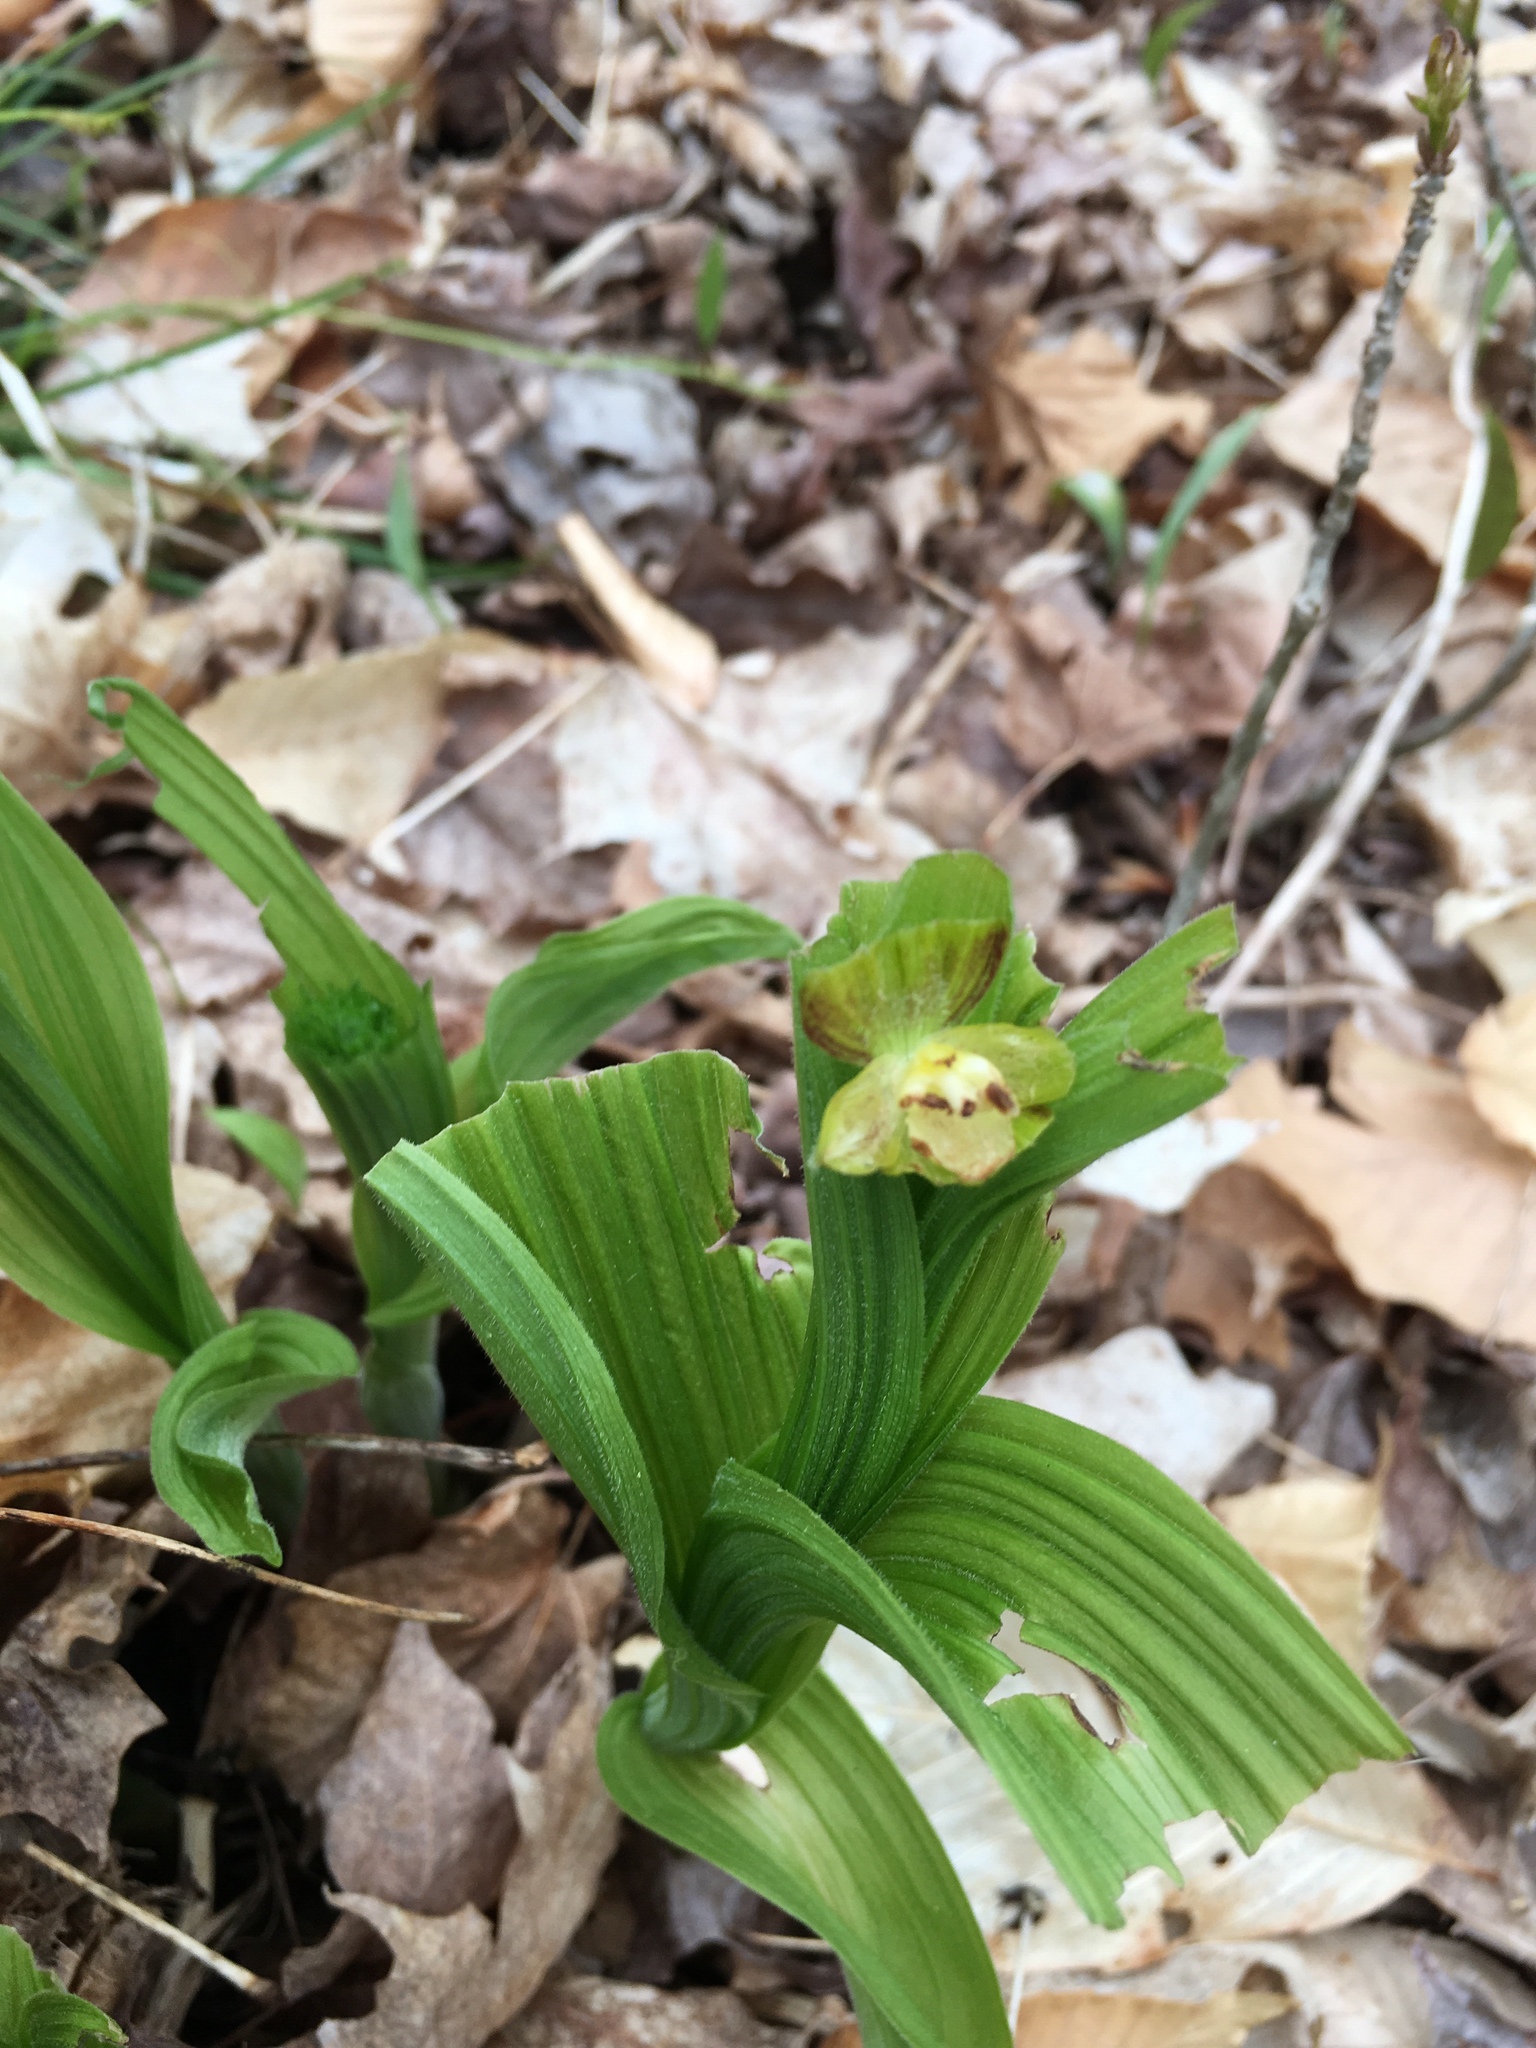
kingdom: Plantae
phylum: Tracheophyta
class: Liliopsida
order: Asparagales
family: Orchidaceae
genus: Cypripedium
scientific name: Cypripedium parviflorum
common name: American yellow lady's-slipper
